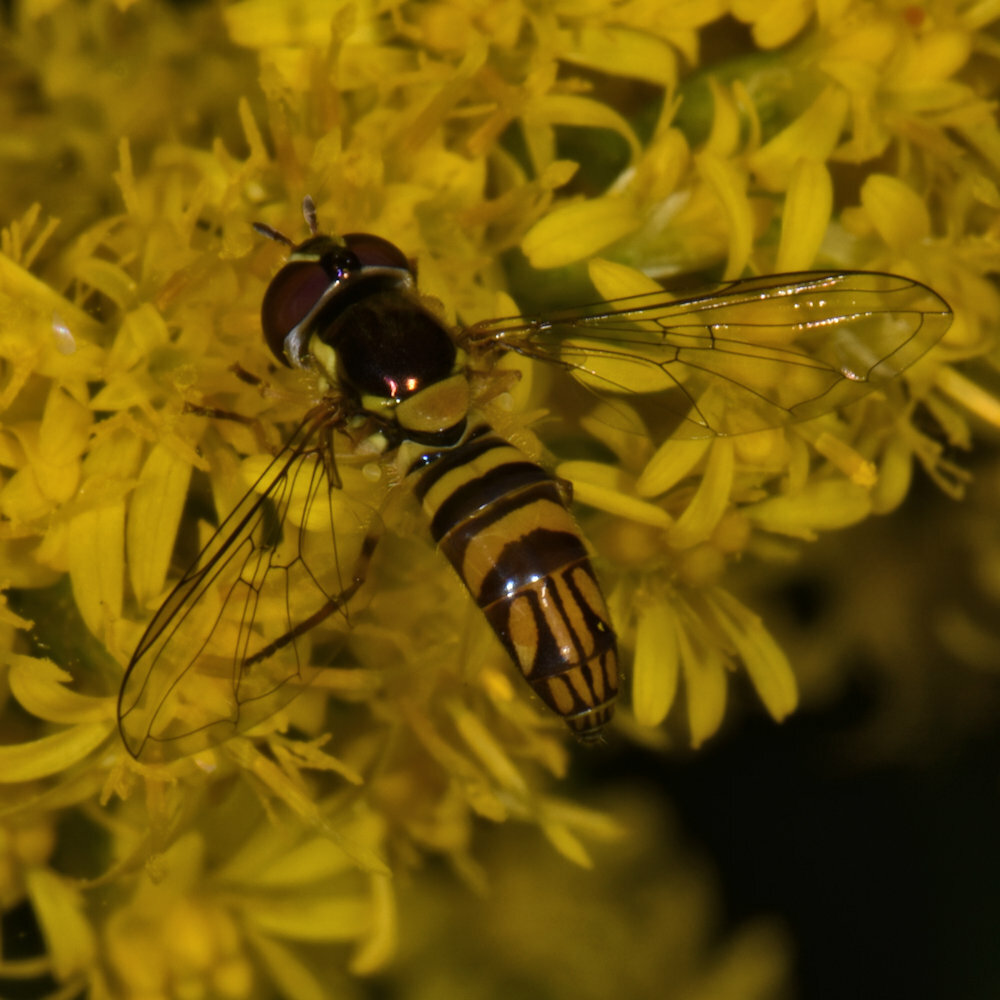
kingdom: Animalia
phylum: Arthropoda
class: Insecta
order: Diptera
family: Syrphidae
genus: Allograpta
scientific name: Allograpta obliqua
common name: Common oblique syrphid
